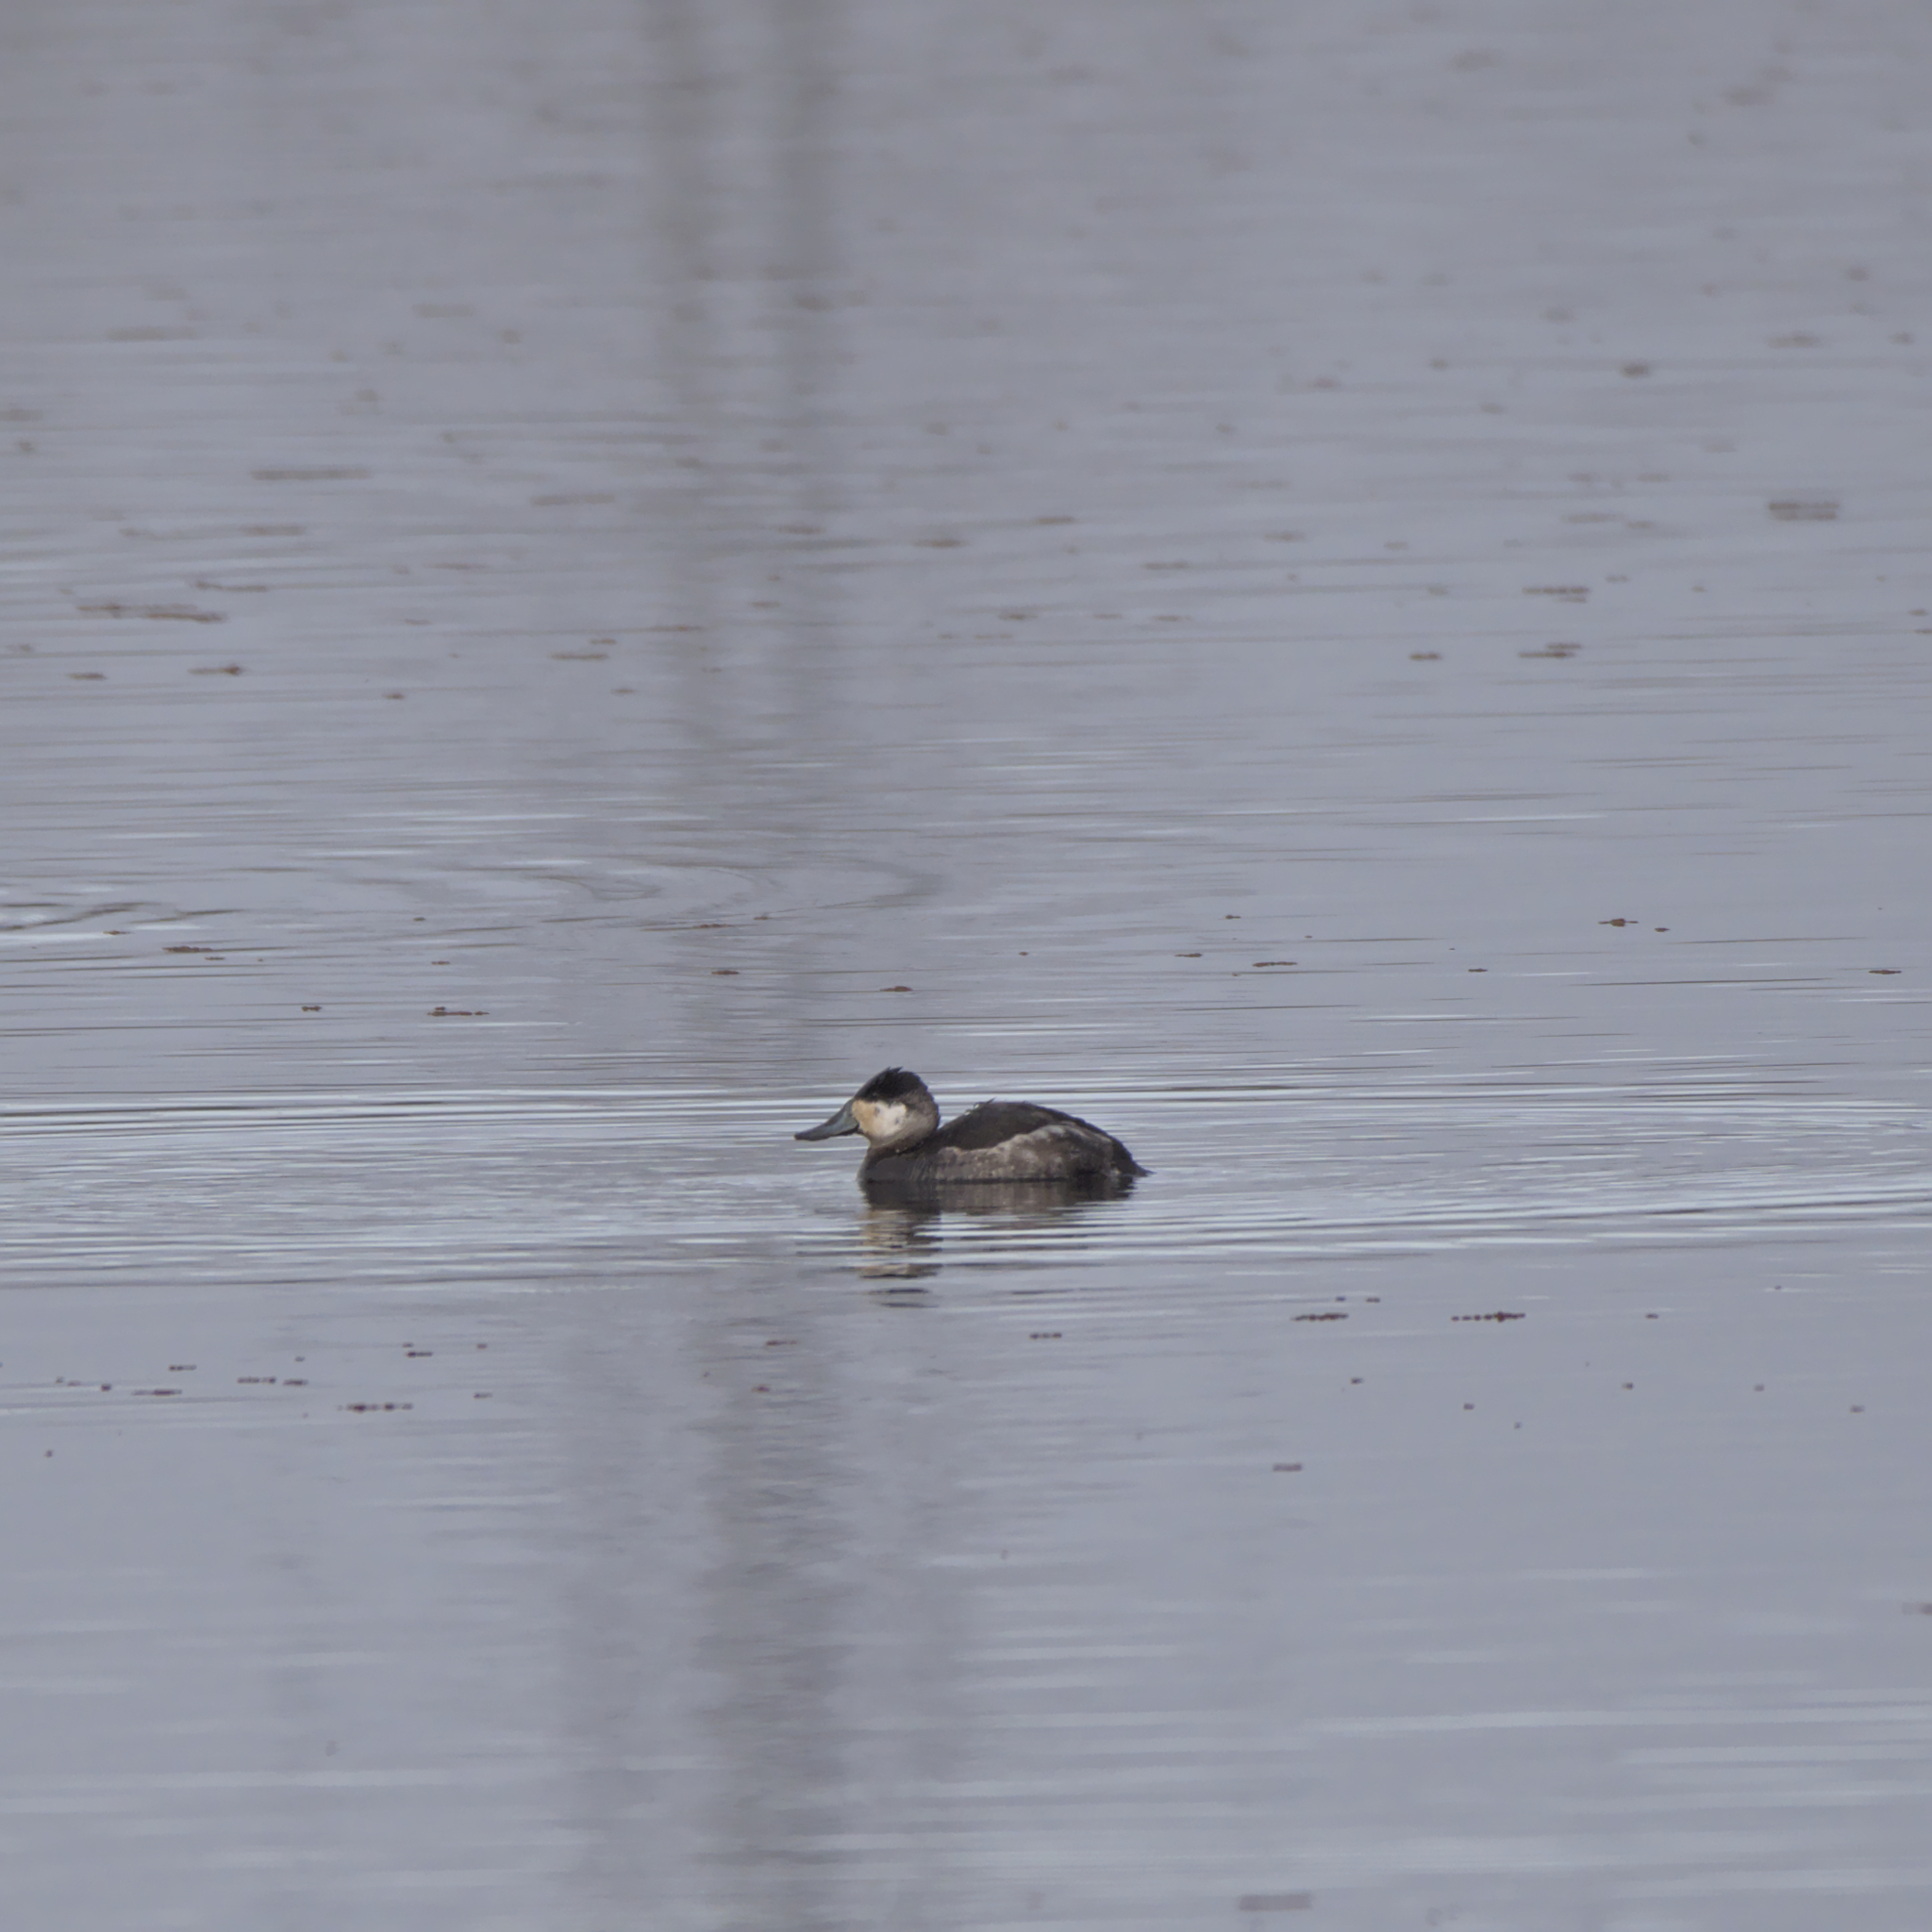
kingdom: Animalia
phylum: Chordata
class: Aves
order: Anseriformes
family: Anatidae
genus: Oxyura
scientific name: Oxyura jamaicensis
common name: Ruddy duck
